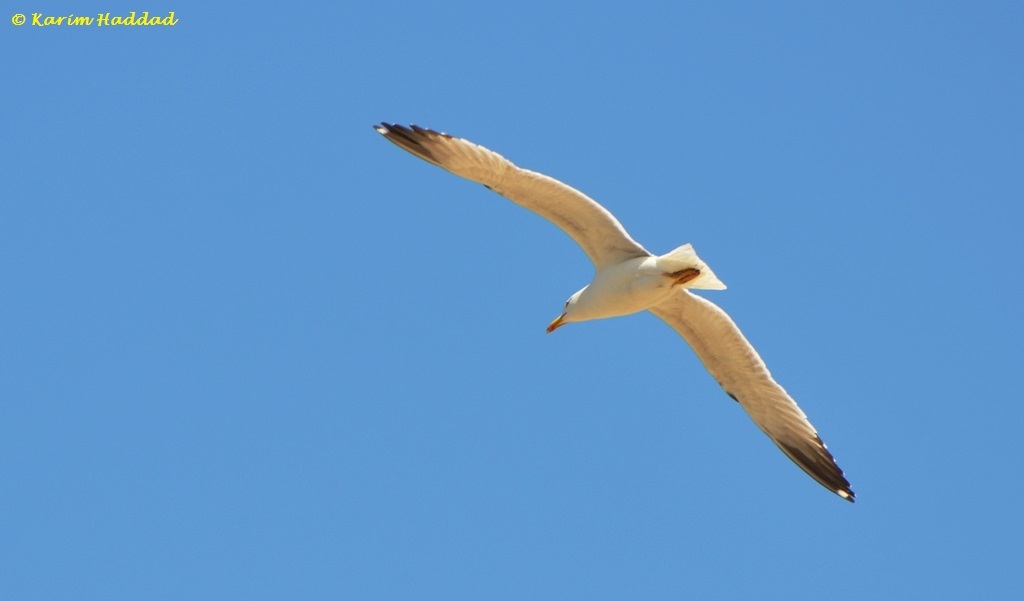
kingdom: Animalia
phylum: Chordata
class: Aves
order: Charadriiformes
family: Laridae
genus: Larus
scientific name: Larus michahellis
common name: Yellow-legged gull
